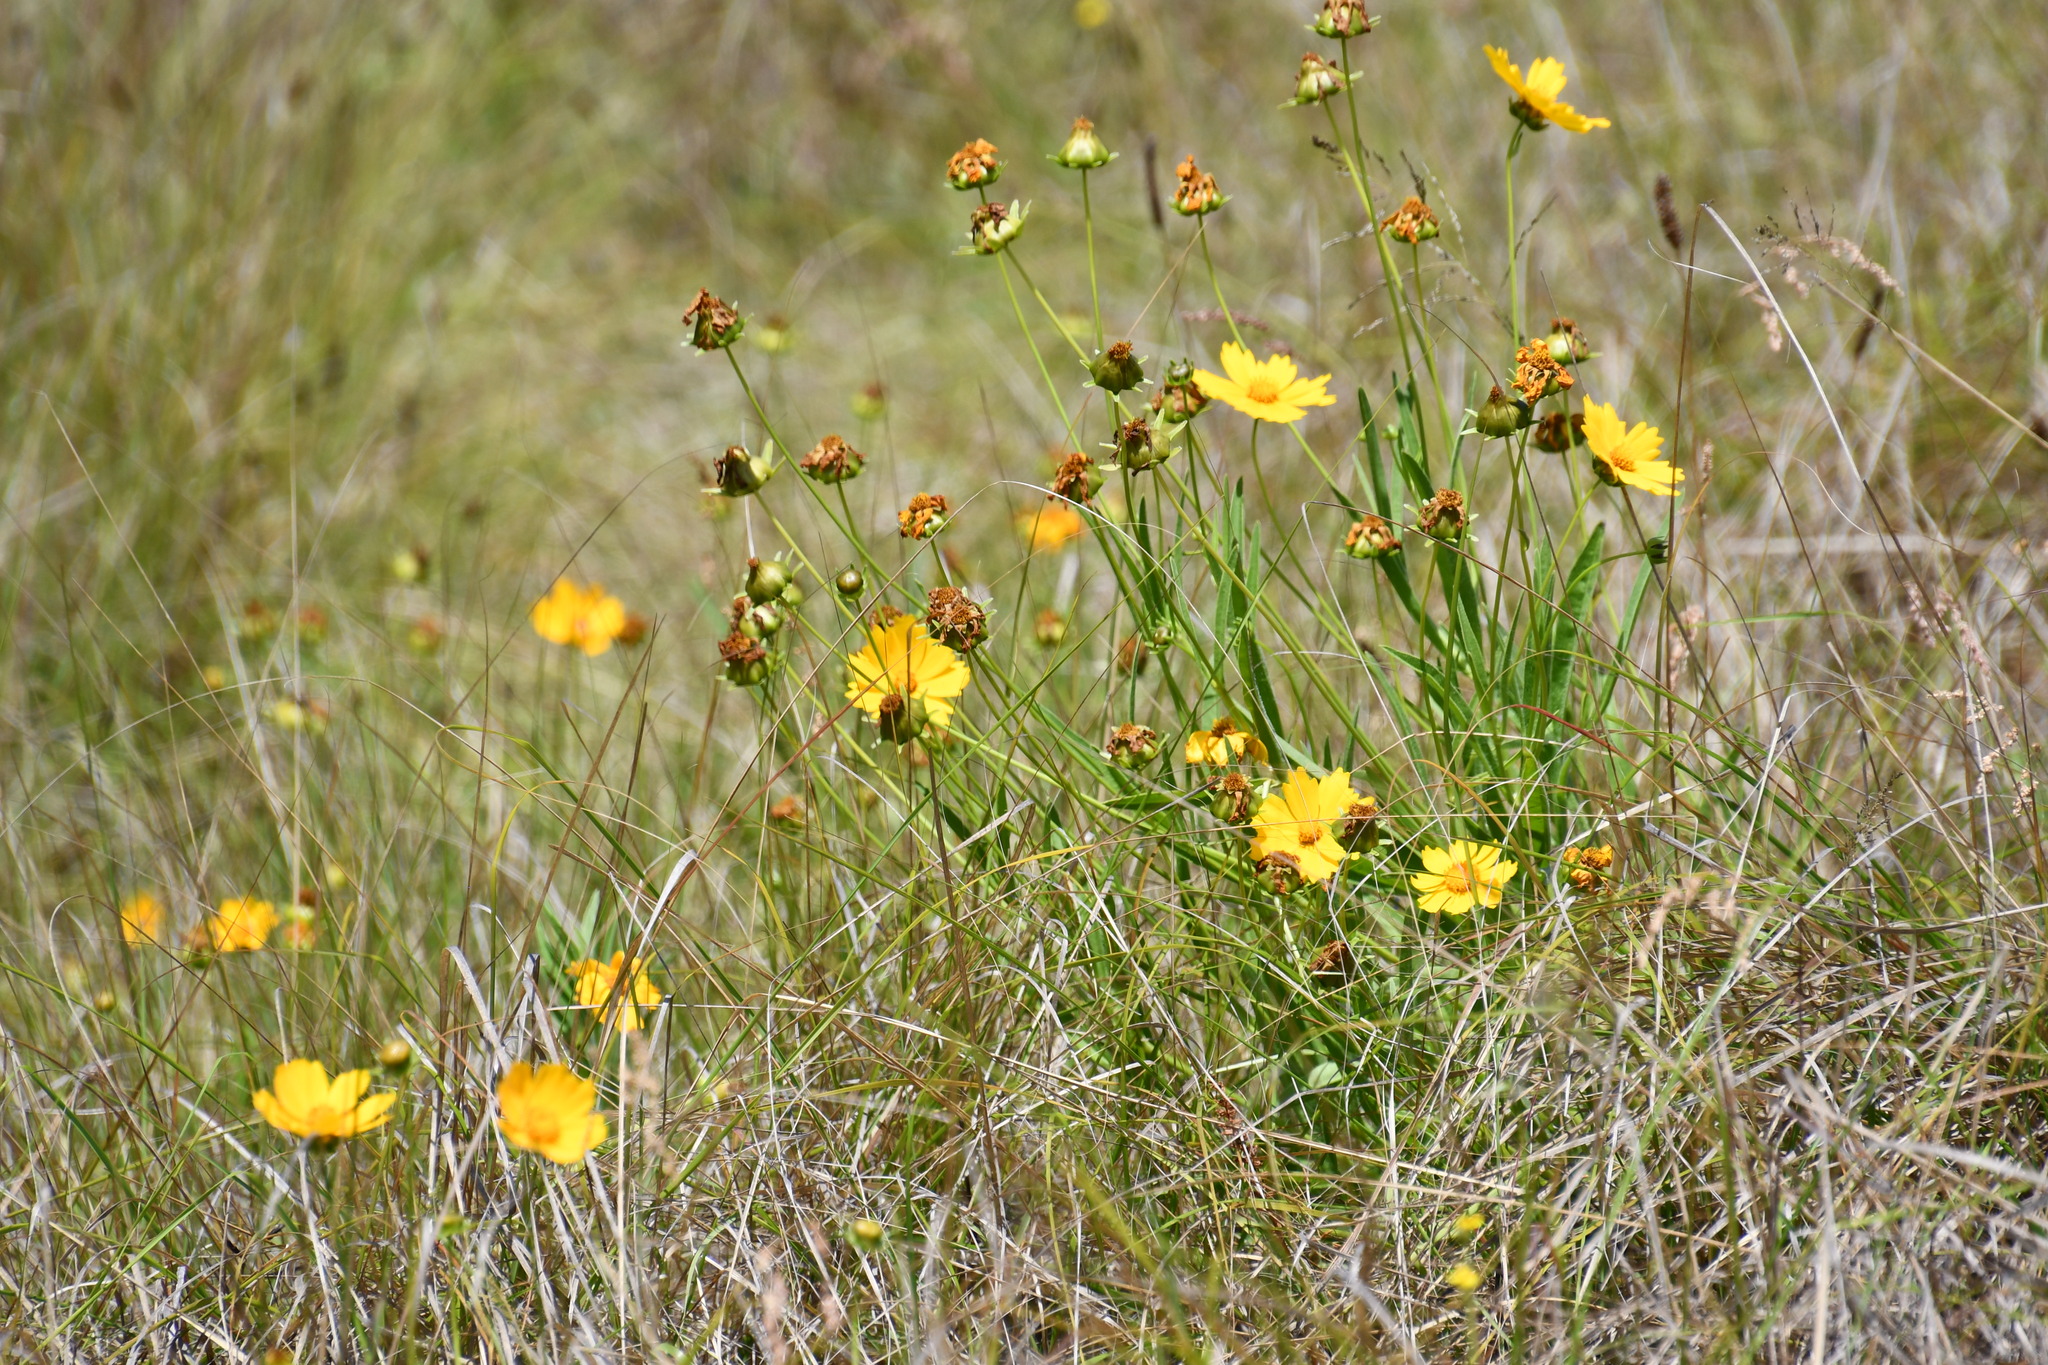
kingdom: Plantae
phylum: Tracheophyta
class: Magnoliopsida
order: Asterales
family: Asteraceae
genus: Coreopsis
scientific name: Coreopsis lanceolata
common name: Garden coreopsis
